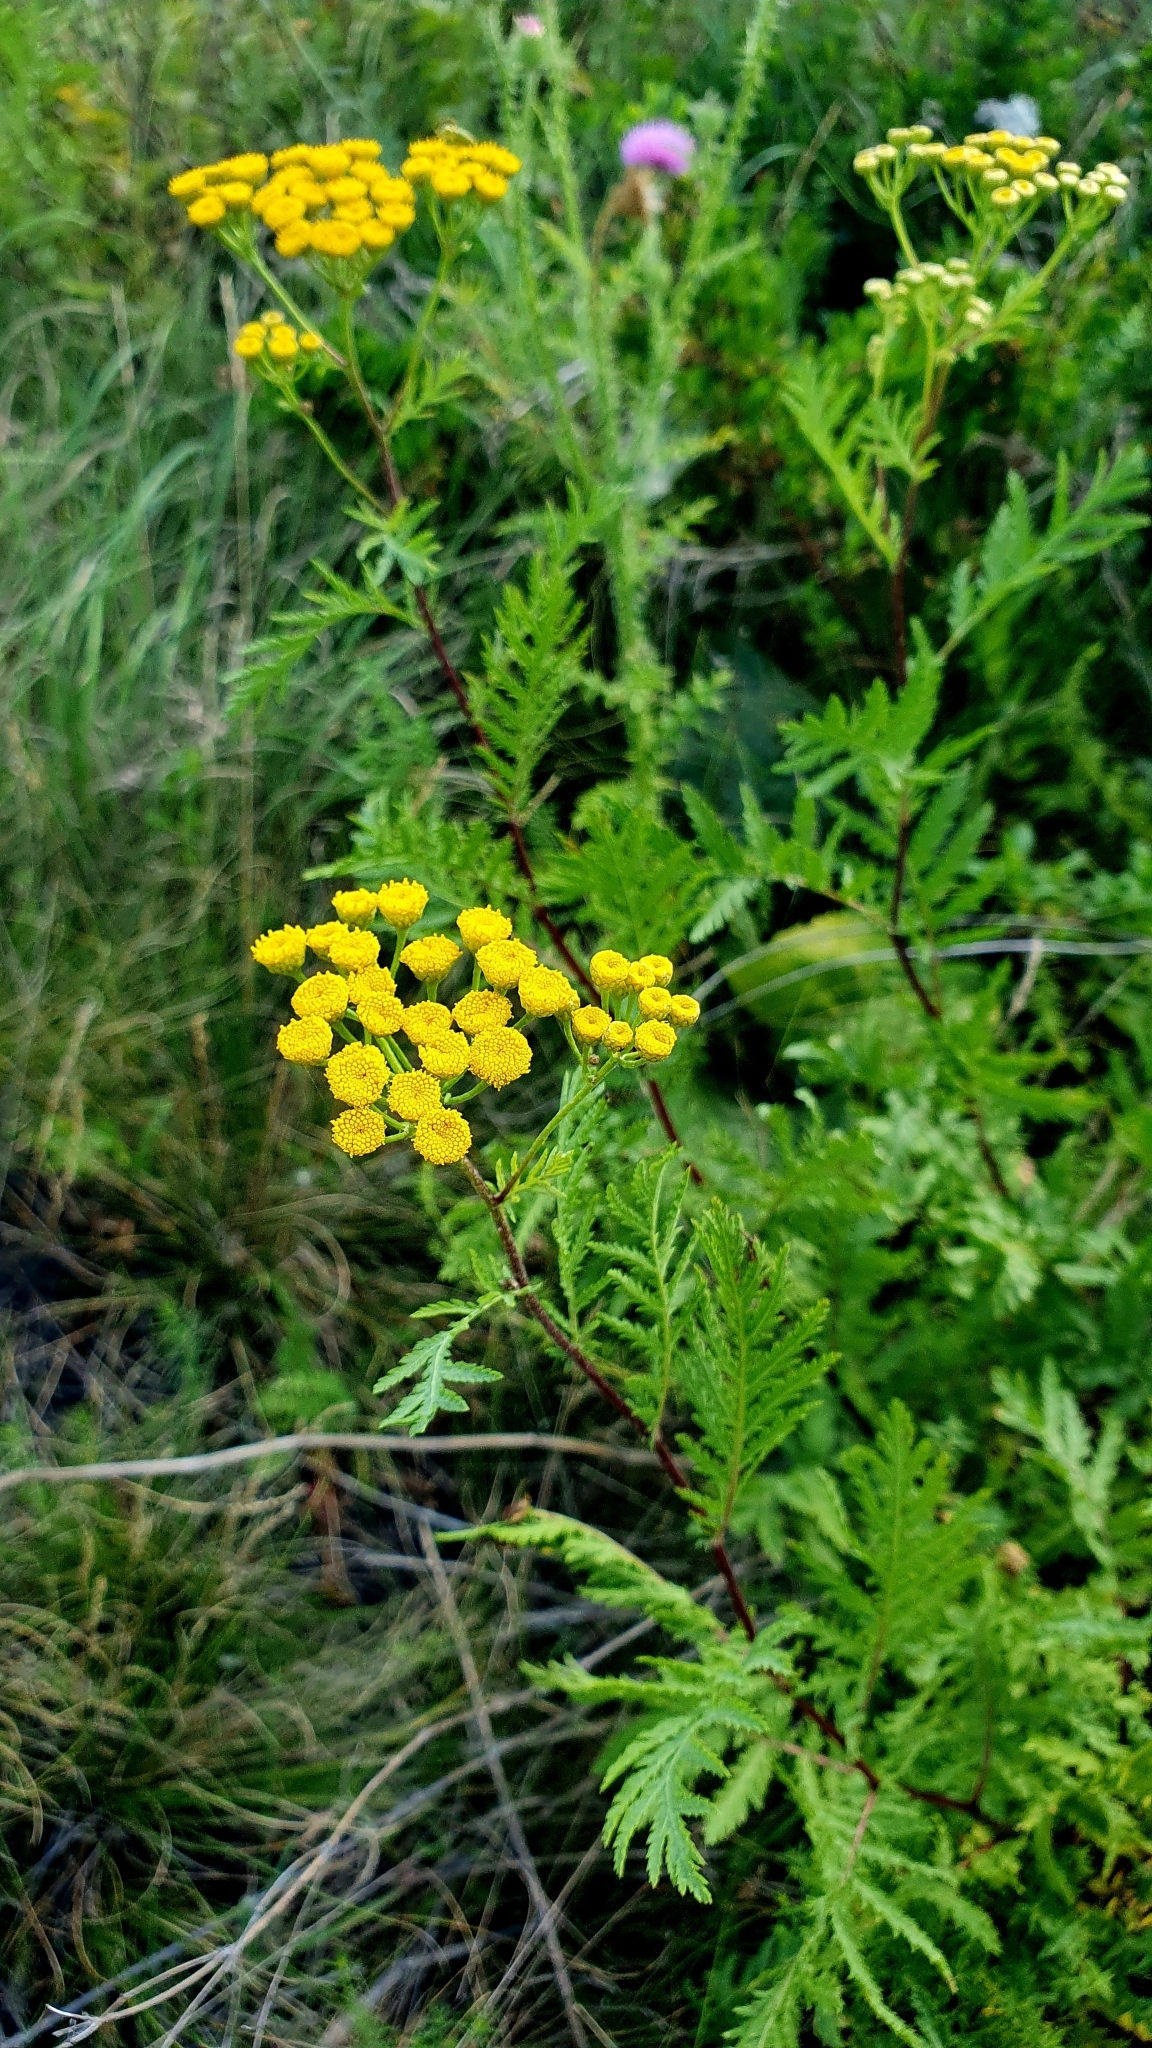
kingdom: Plantae
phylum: Tracheophyta
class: Magnoliopsida
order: Asterales
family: Asteraceae
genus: Tanacetum
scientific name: Tanacetum vulgare
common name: Common tansy
